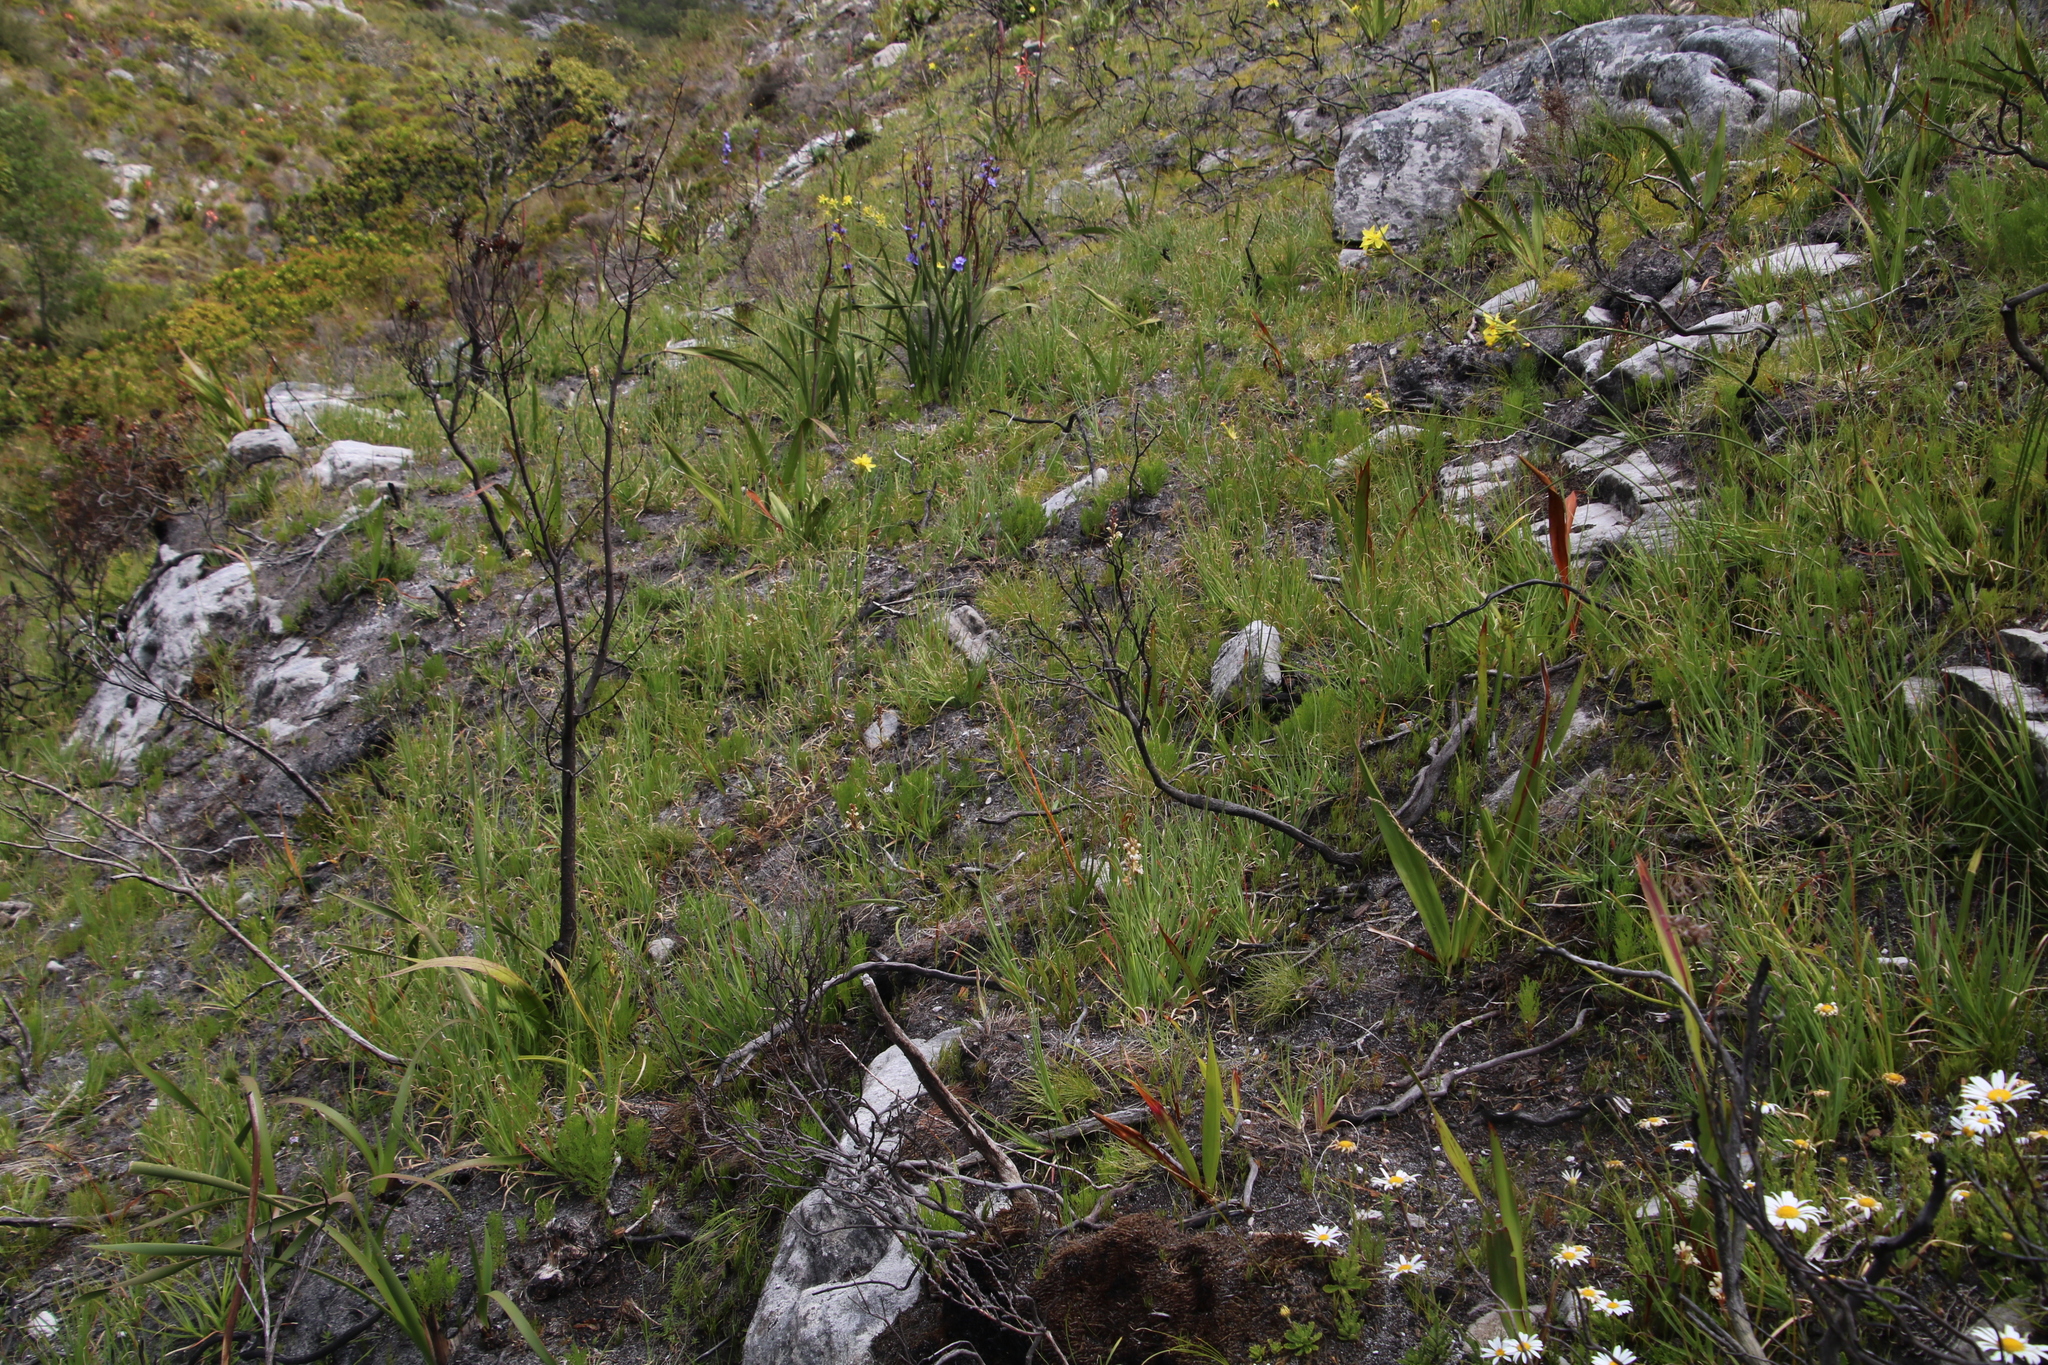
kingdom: Plantae
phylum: Tracheophyta
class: Liliopsida
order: Asparagales
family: Iridaceae
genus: Tritoniopsis
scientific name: Tritoniopsis unguicularis
